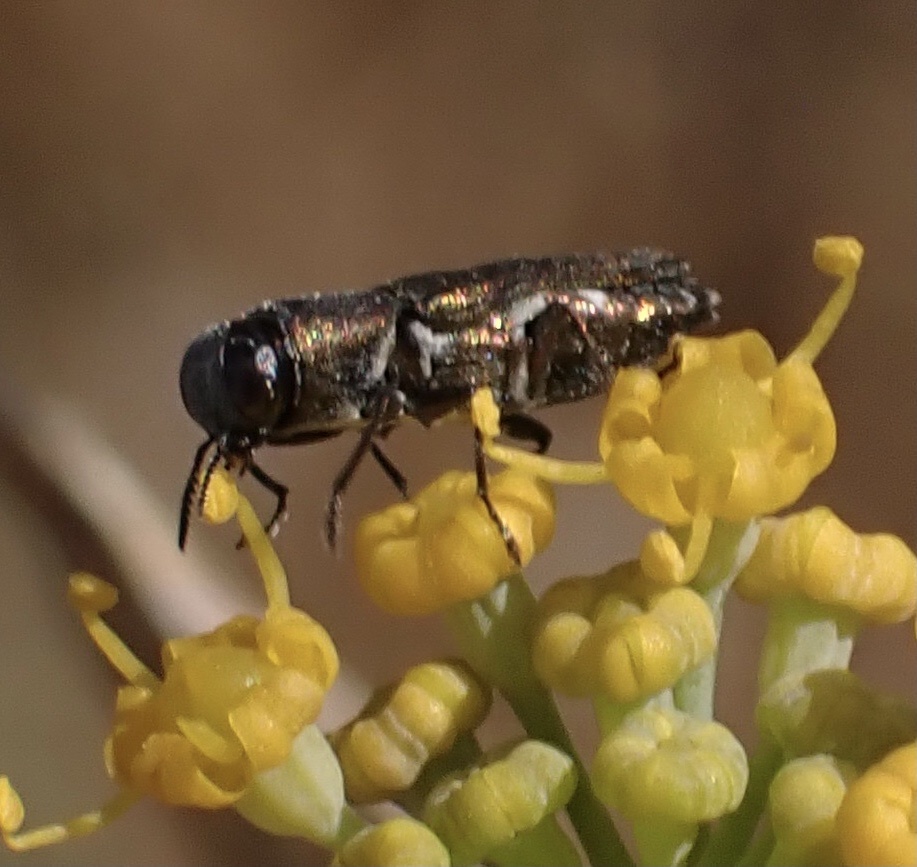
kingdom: Animalia
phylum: Arthropoda
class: Insecta
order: Coleoptera
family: Buprestidae
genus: Anthaxia
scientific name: Anthaxia umbellatarum
